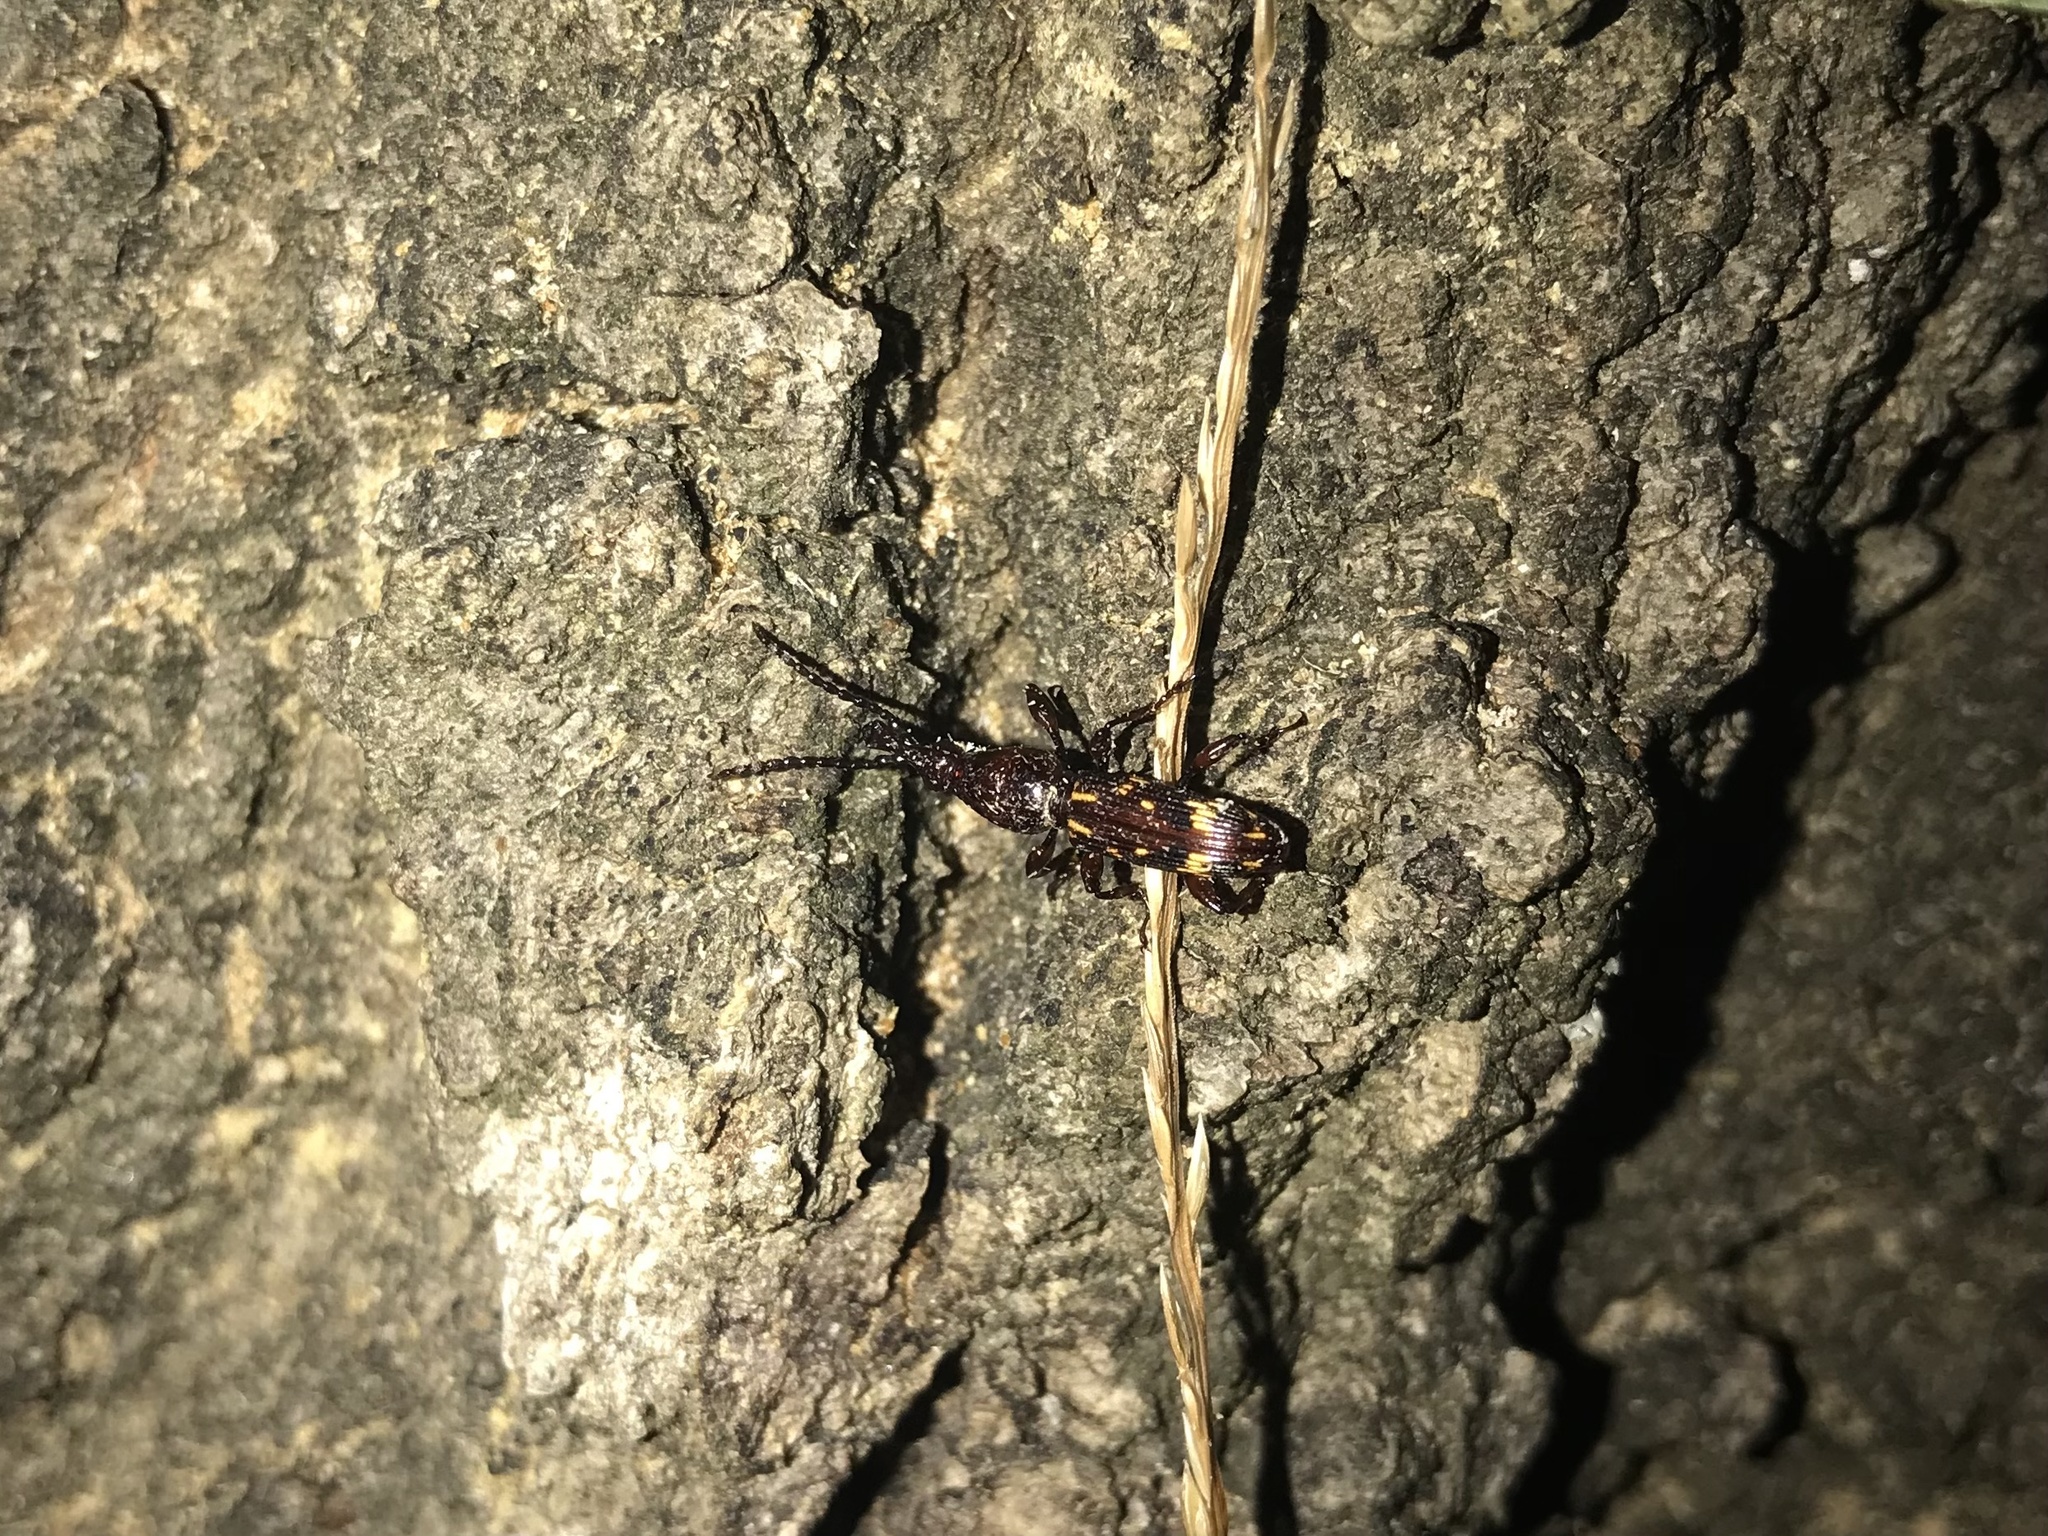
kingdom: Animalia
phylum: Arthropoda
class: Insecta
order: Coleoptera
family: Brentidae
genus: Arrenodes
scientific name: Arrenodes minutus
